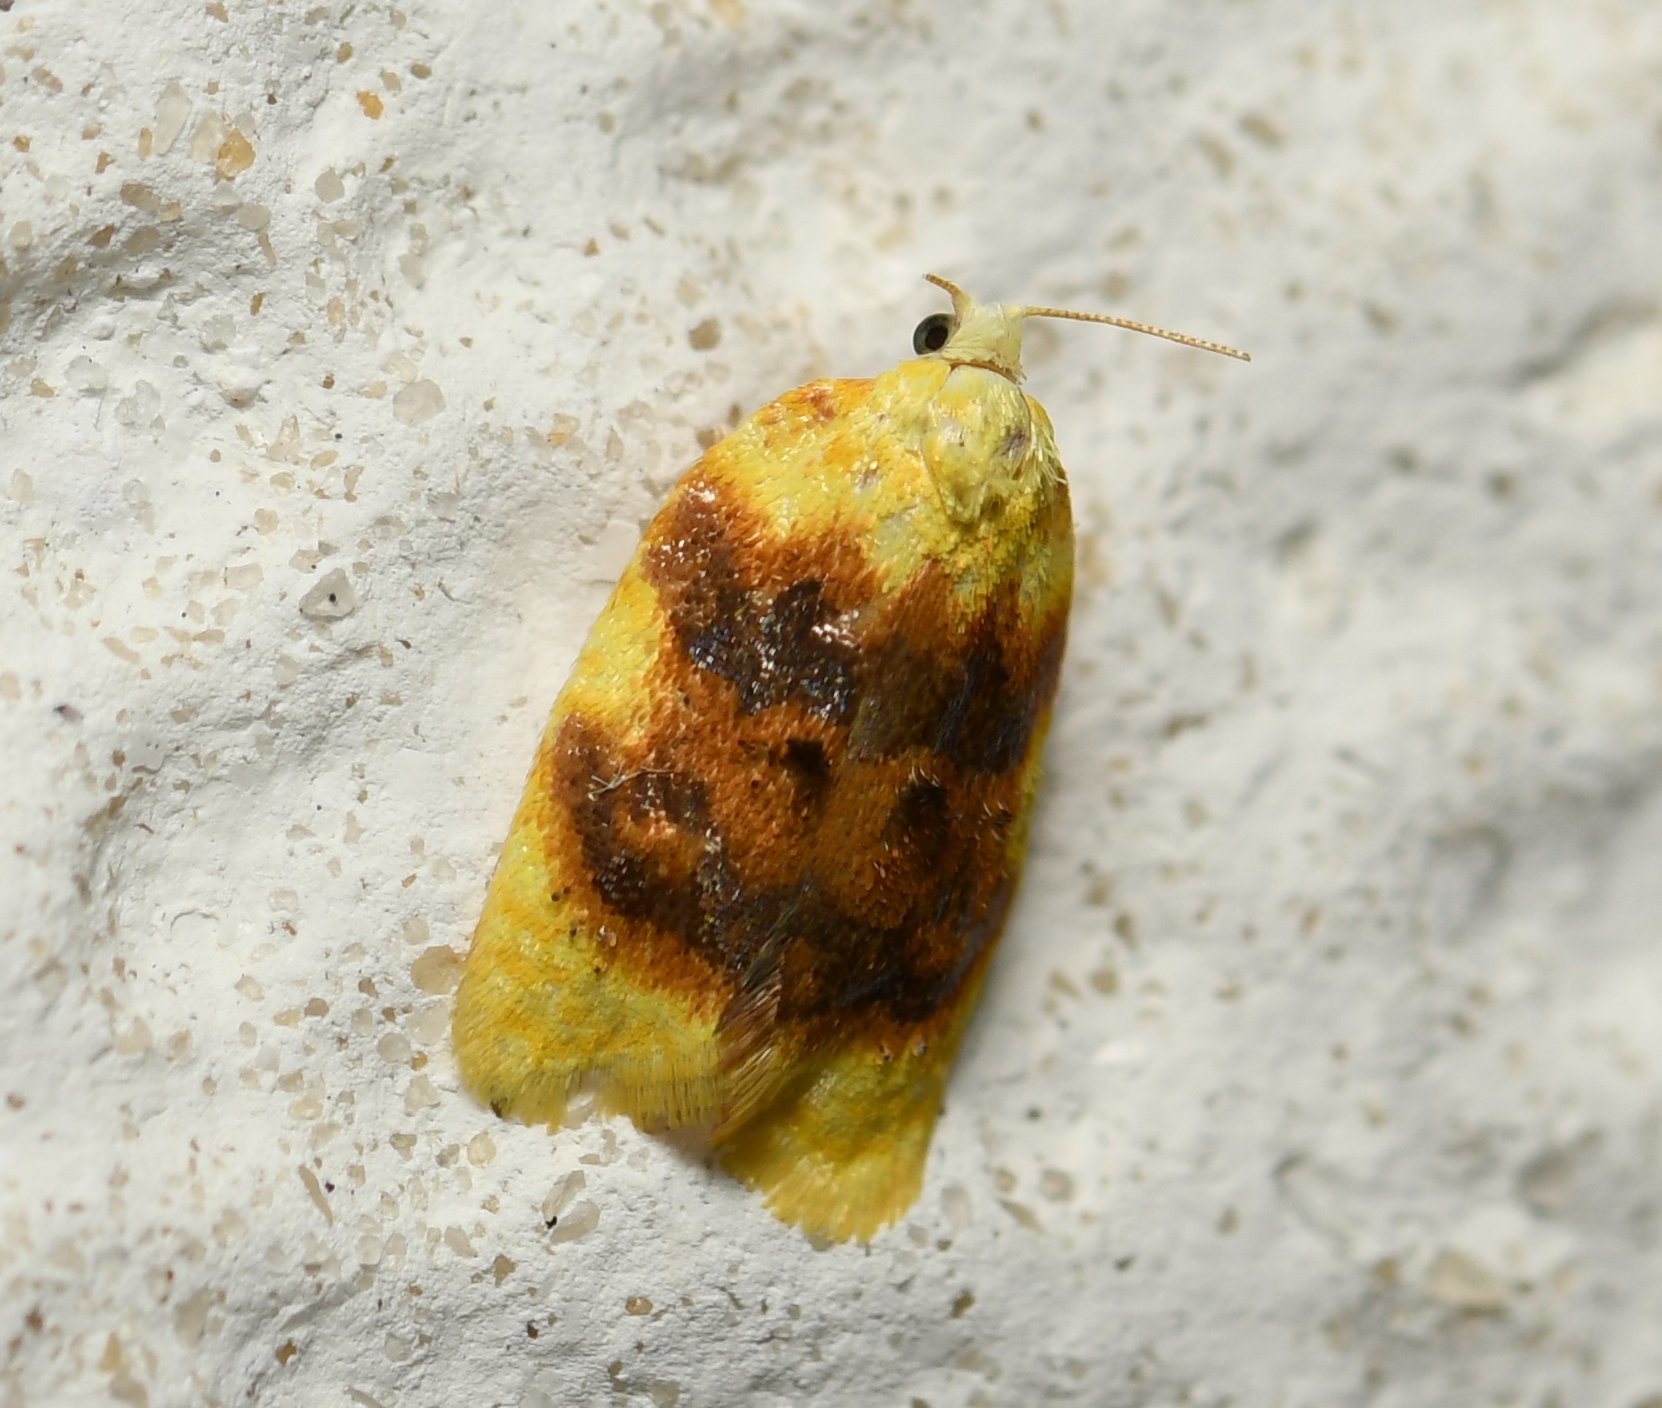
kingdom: Animalia
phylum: Arthropoda
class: Insecta
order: Lepidoptera
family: Tortricidae
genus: Acleris
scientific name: Acleris semipurpurana
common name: Oak leaftier moth
